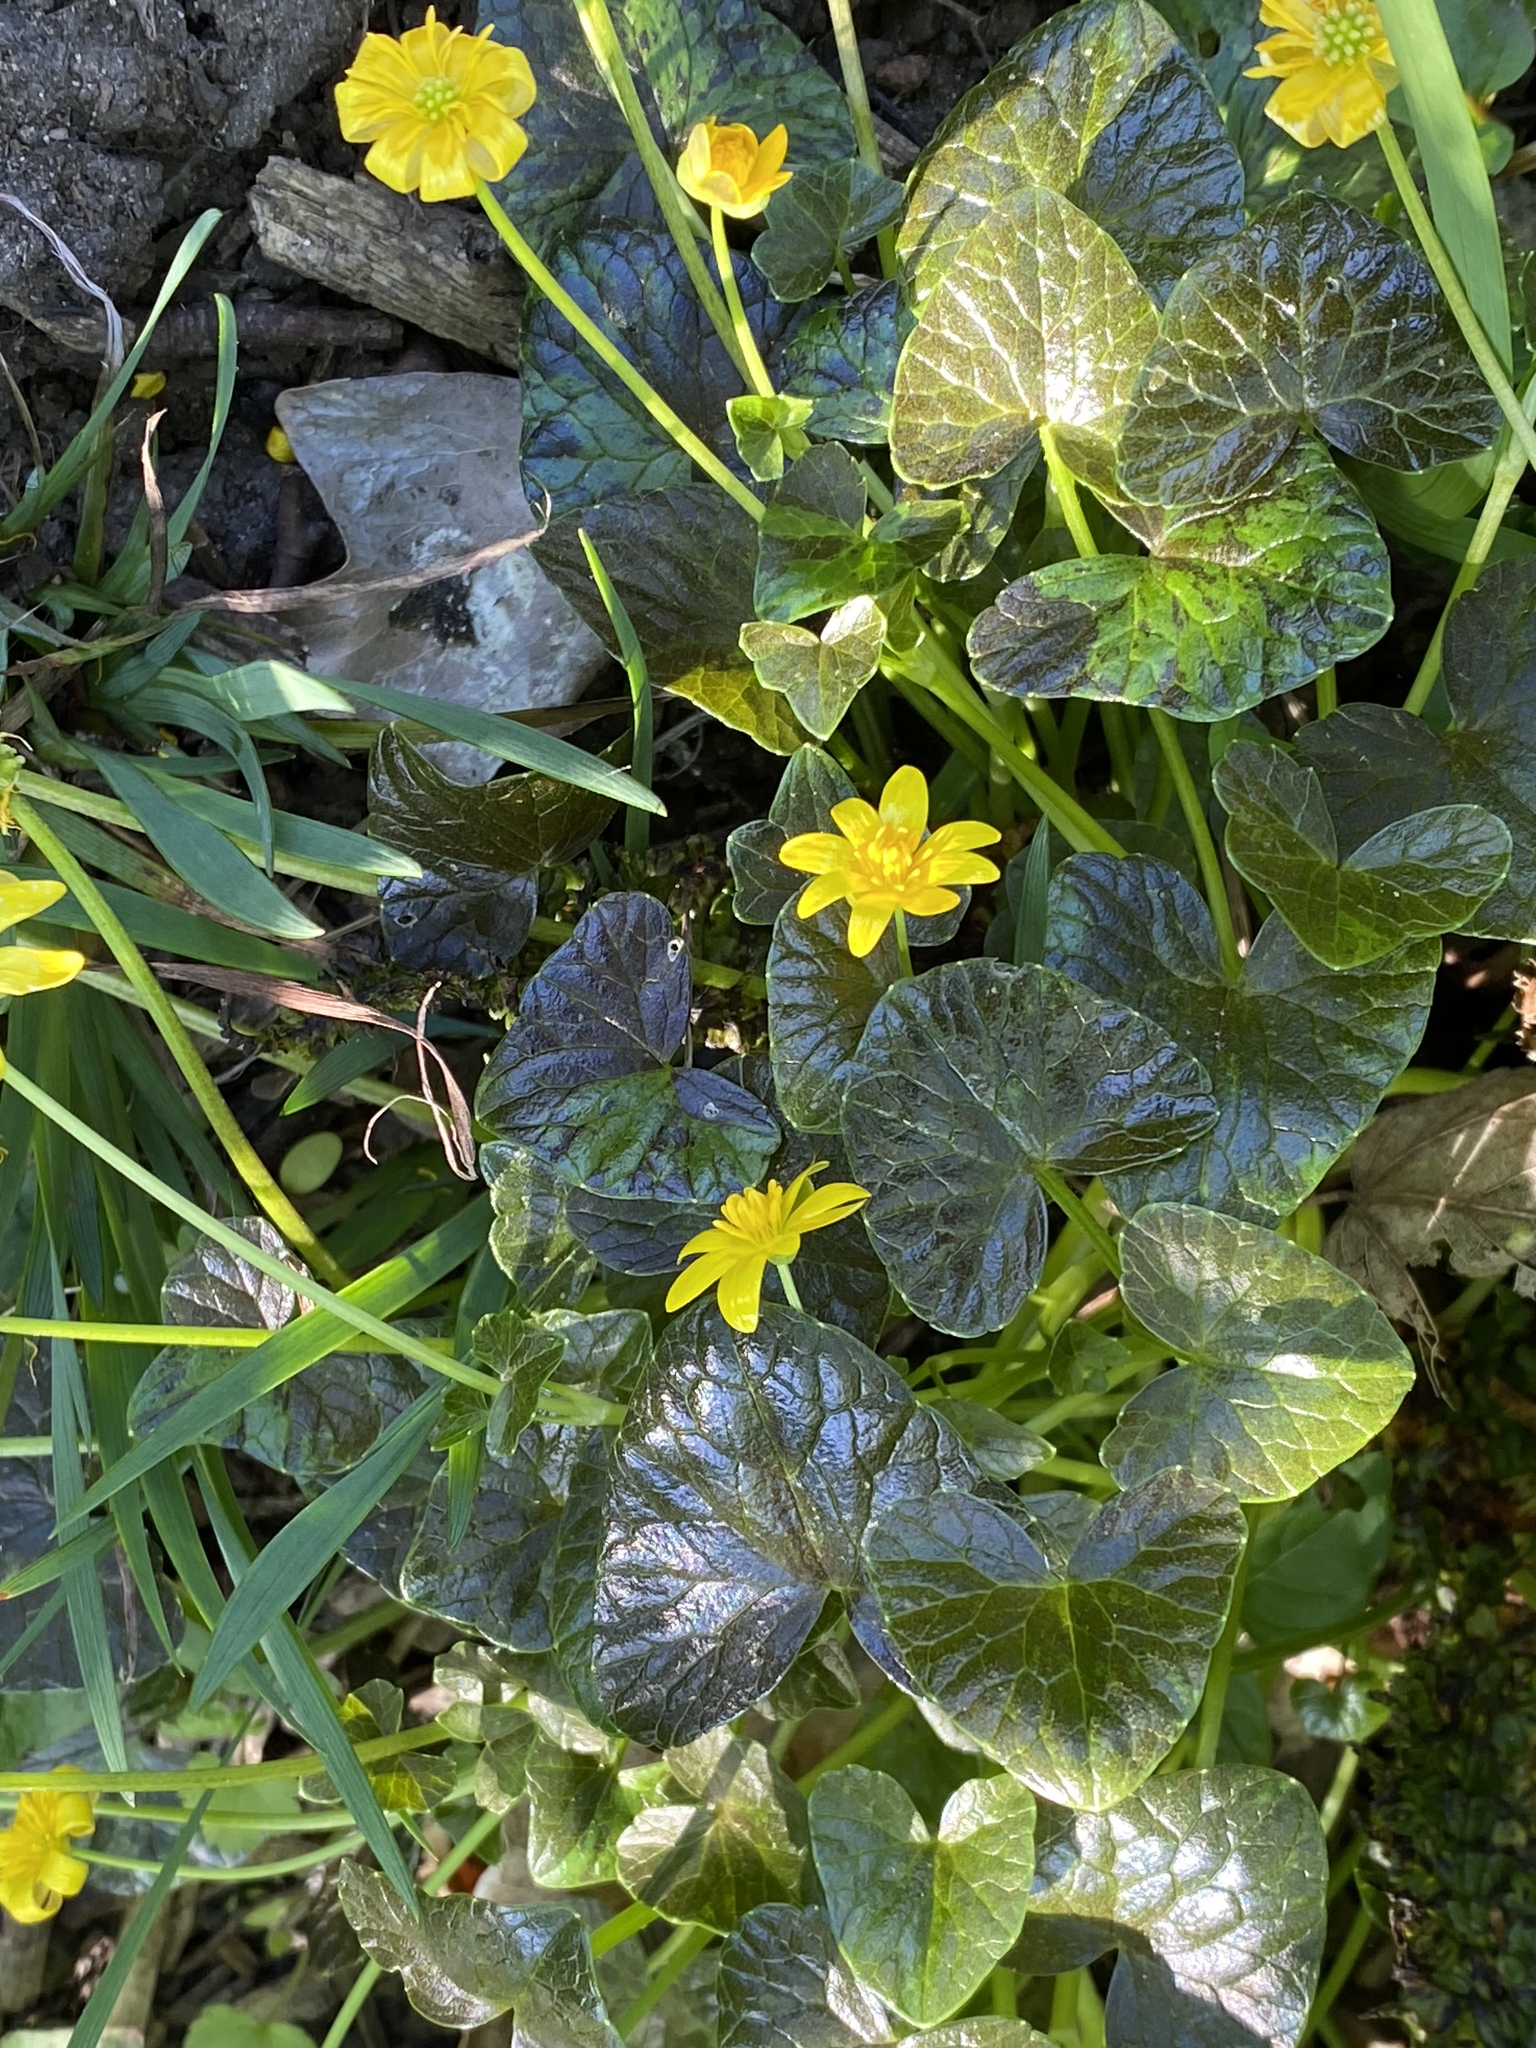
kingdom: Plantae
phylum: Tracheophyta
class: Magnoliopsida
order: Ranunculales
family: Ranunculaceae
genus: Ficaria
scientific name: Ficaria verna
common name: Lesser celandine
